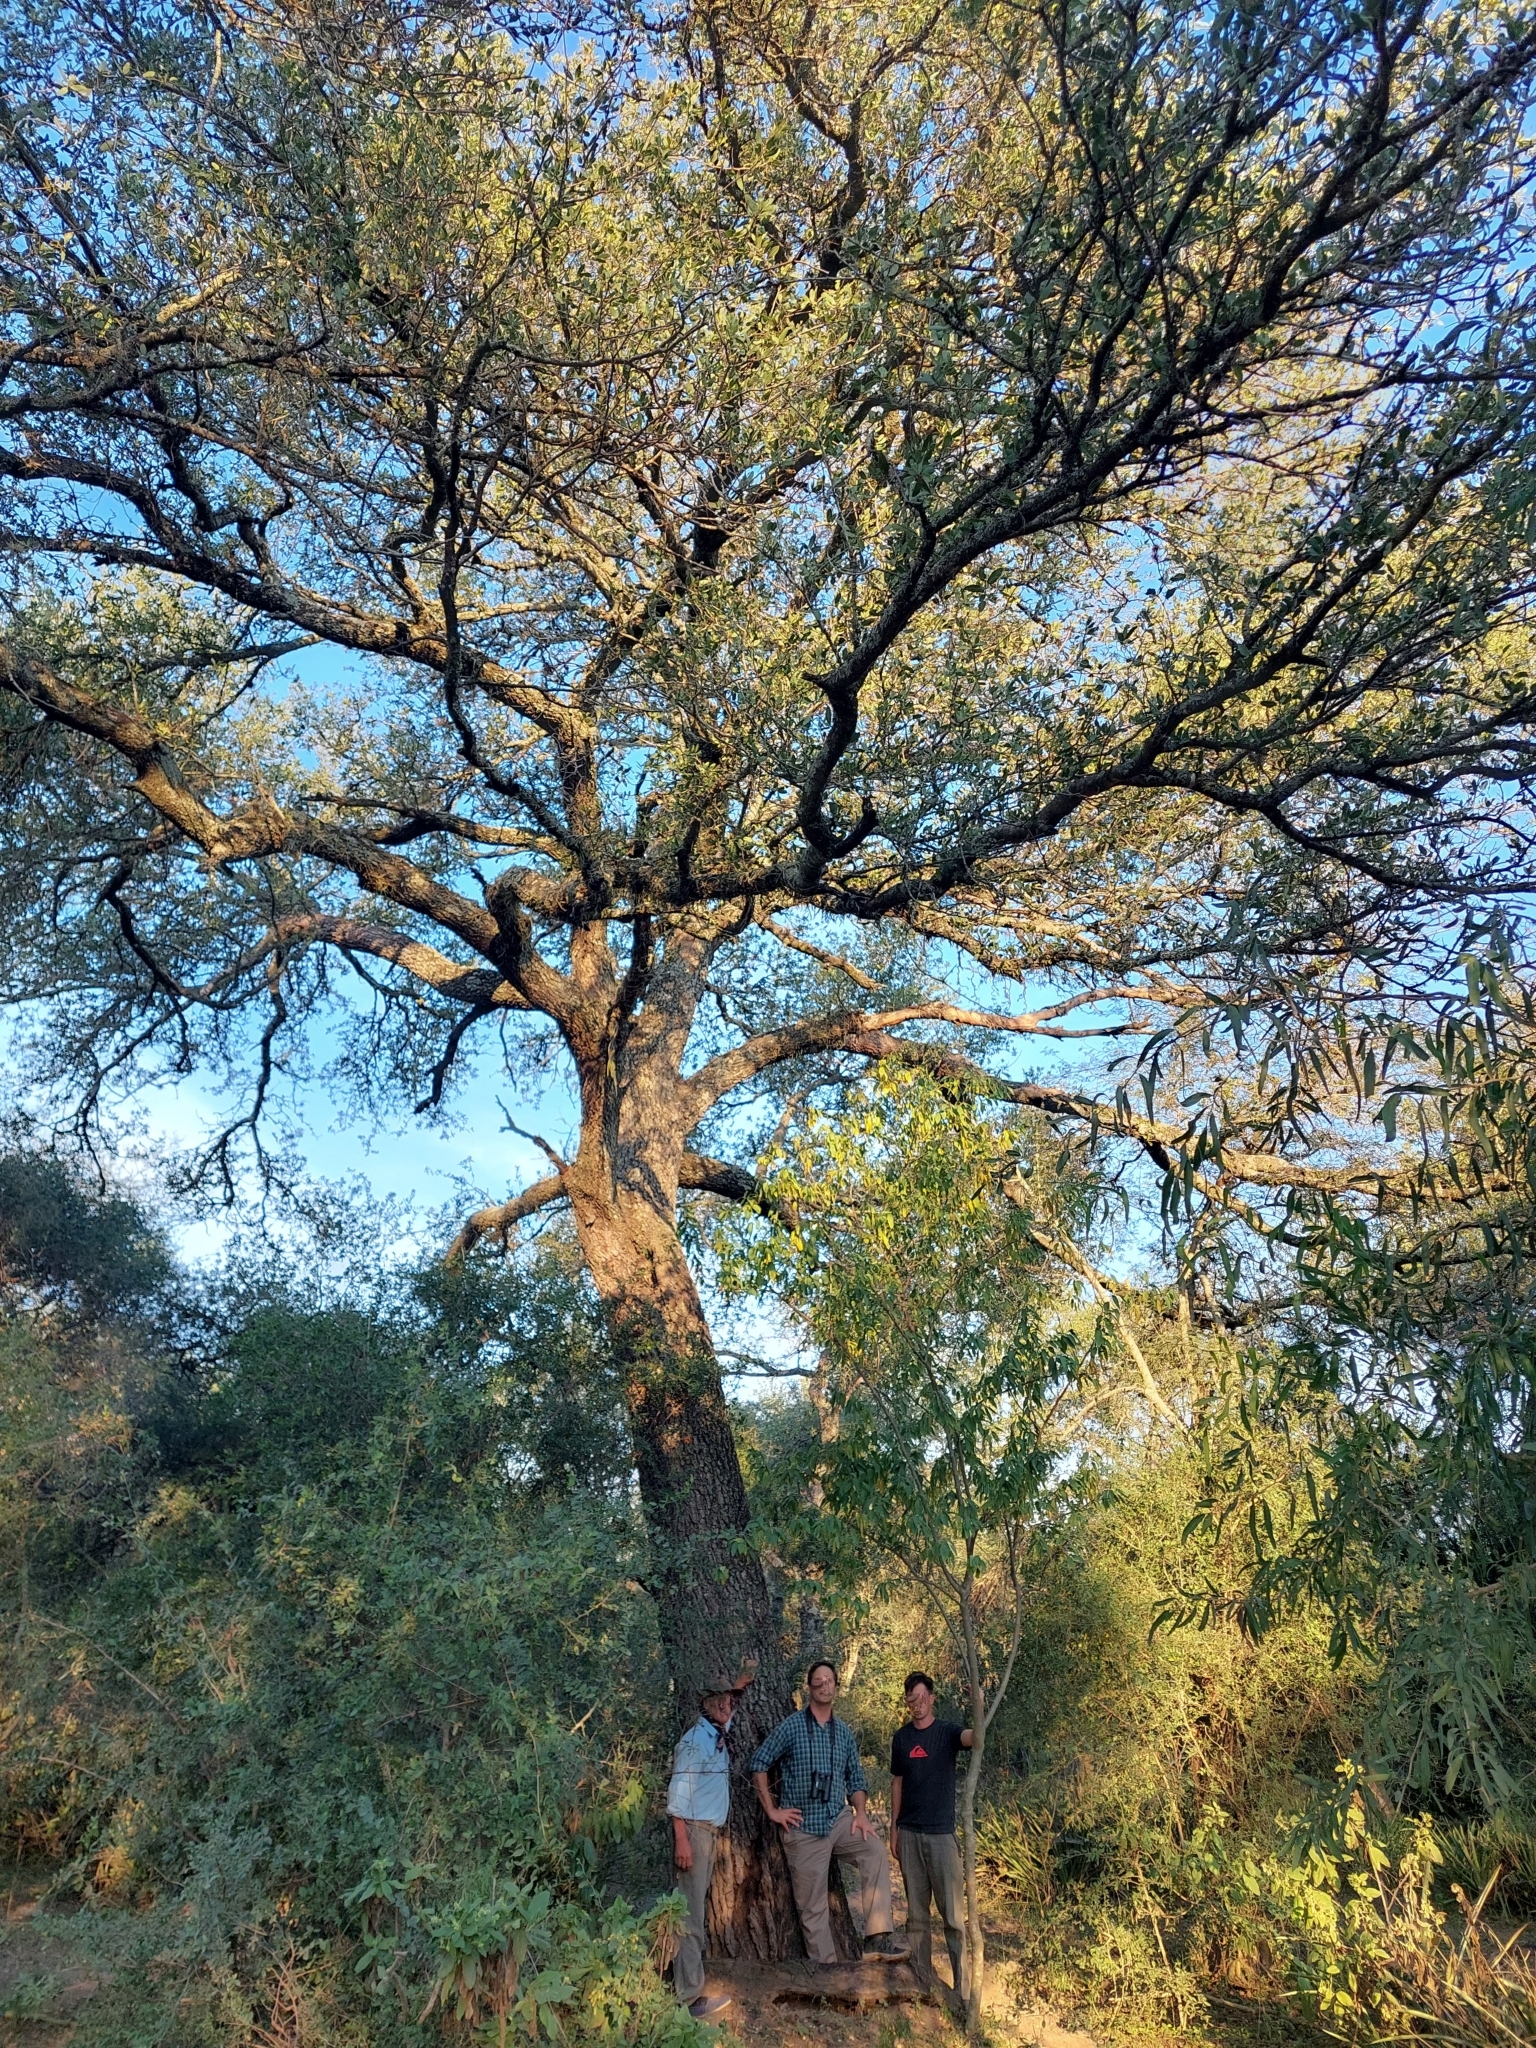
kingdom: Plantae
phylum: Tracheophyta
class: Magnoliopsida
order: Sapindales
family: Anacardiaceae
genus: Schinopsis
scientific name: Schinopsis balansae
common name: Red quebracho
